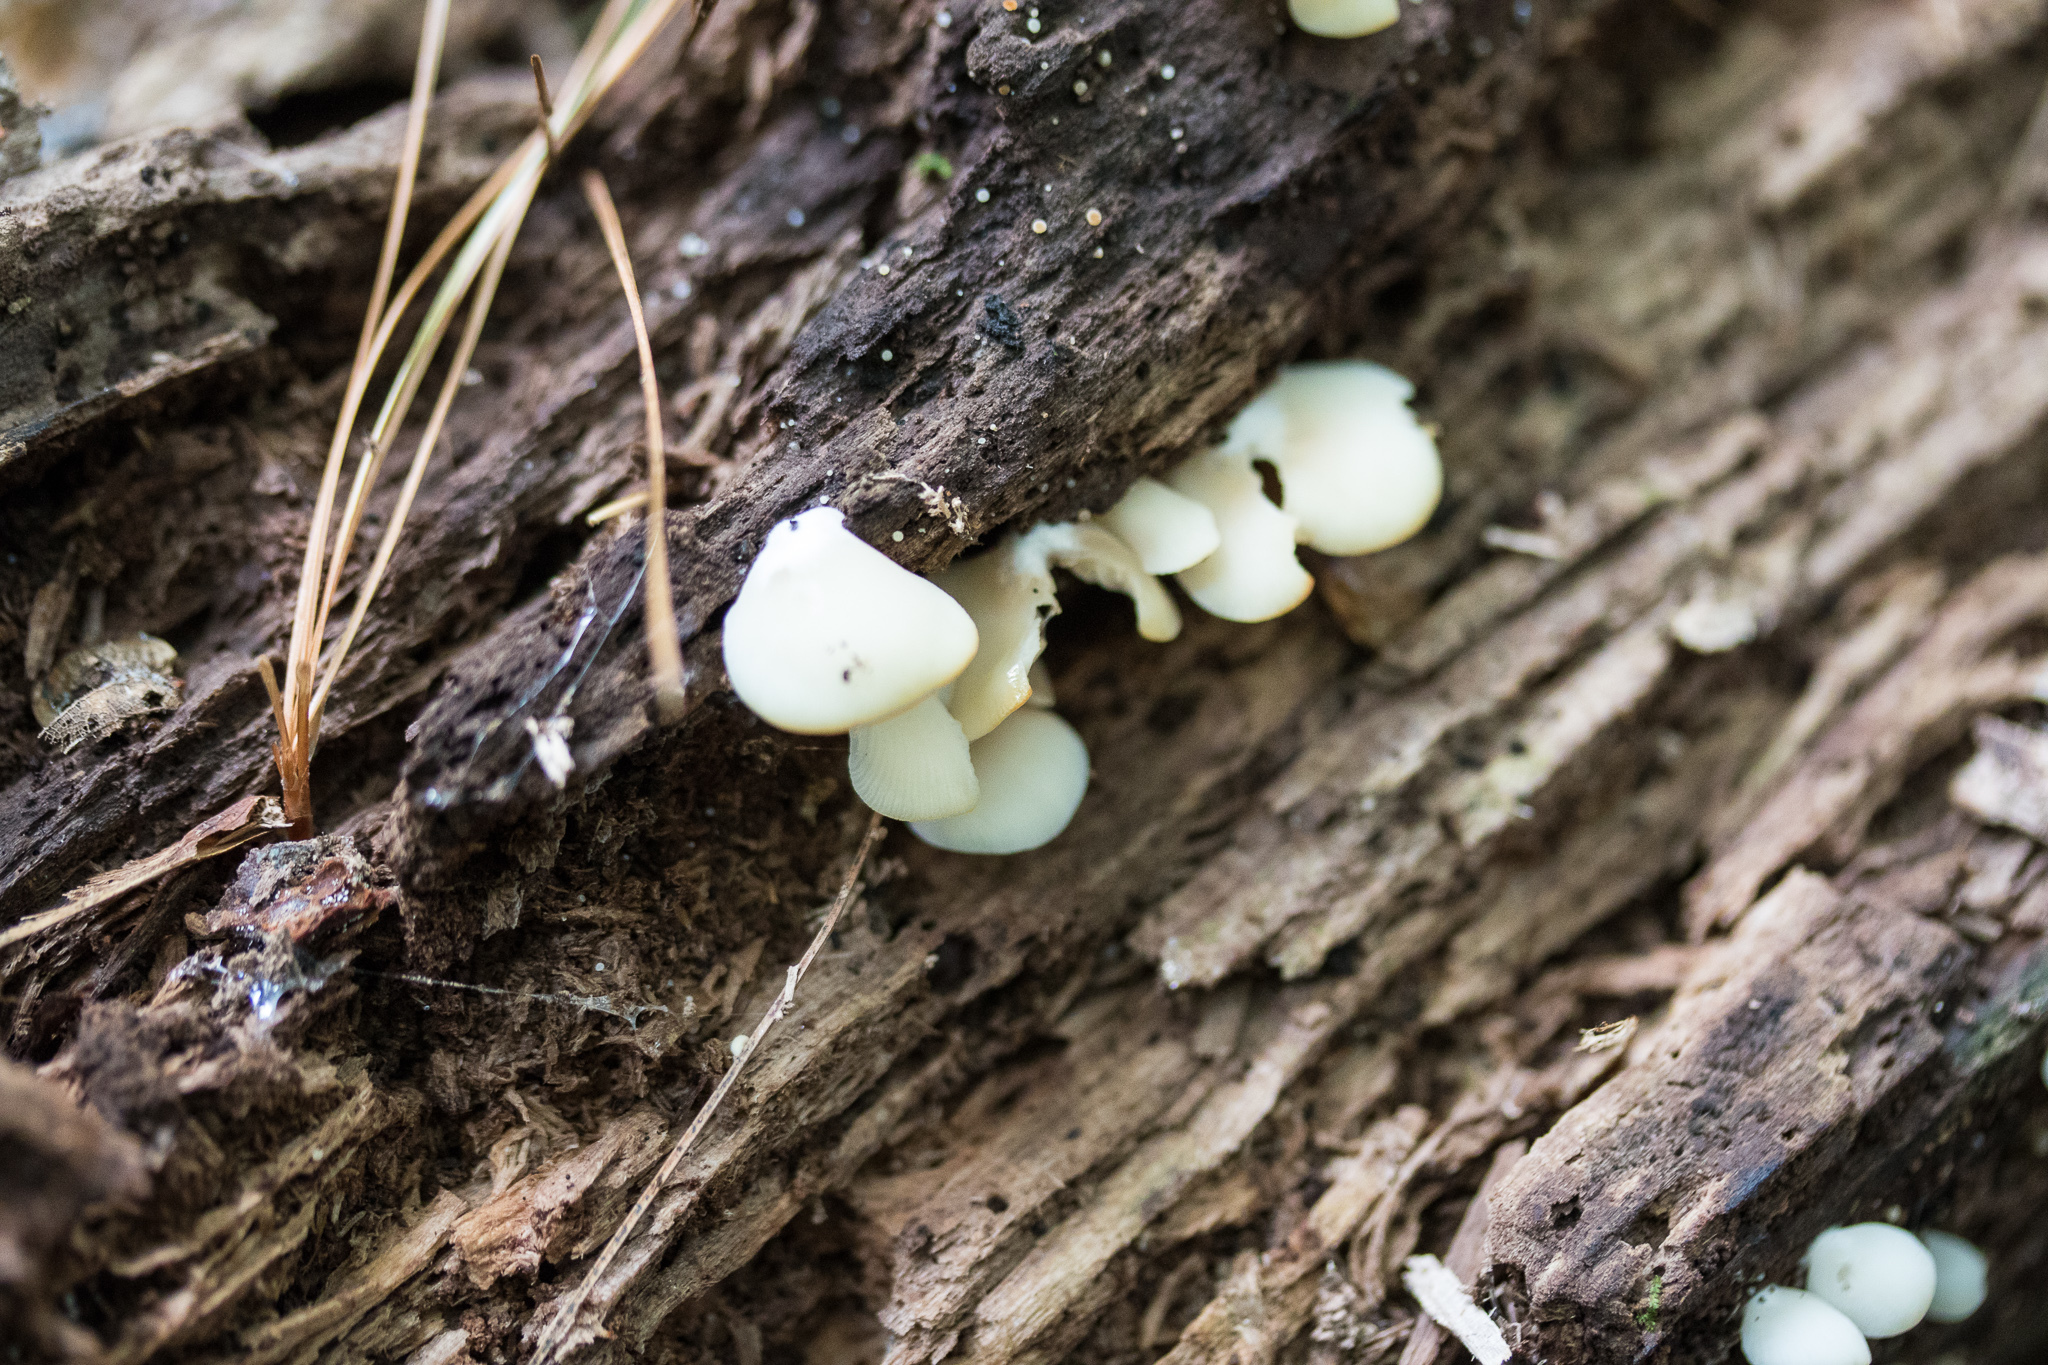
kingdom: Fungi
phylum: Basidiomycota
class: Agaricomycetes
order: Agaricales
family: Crepidotaceae
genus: Crepidotus
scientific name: Crepidotus applanatus
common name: Flat crep
